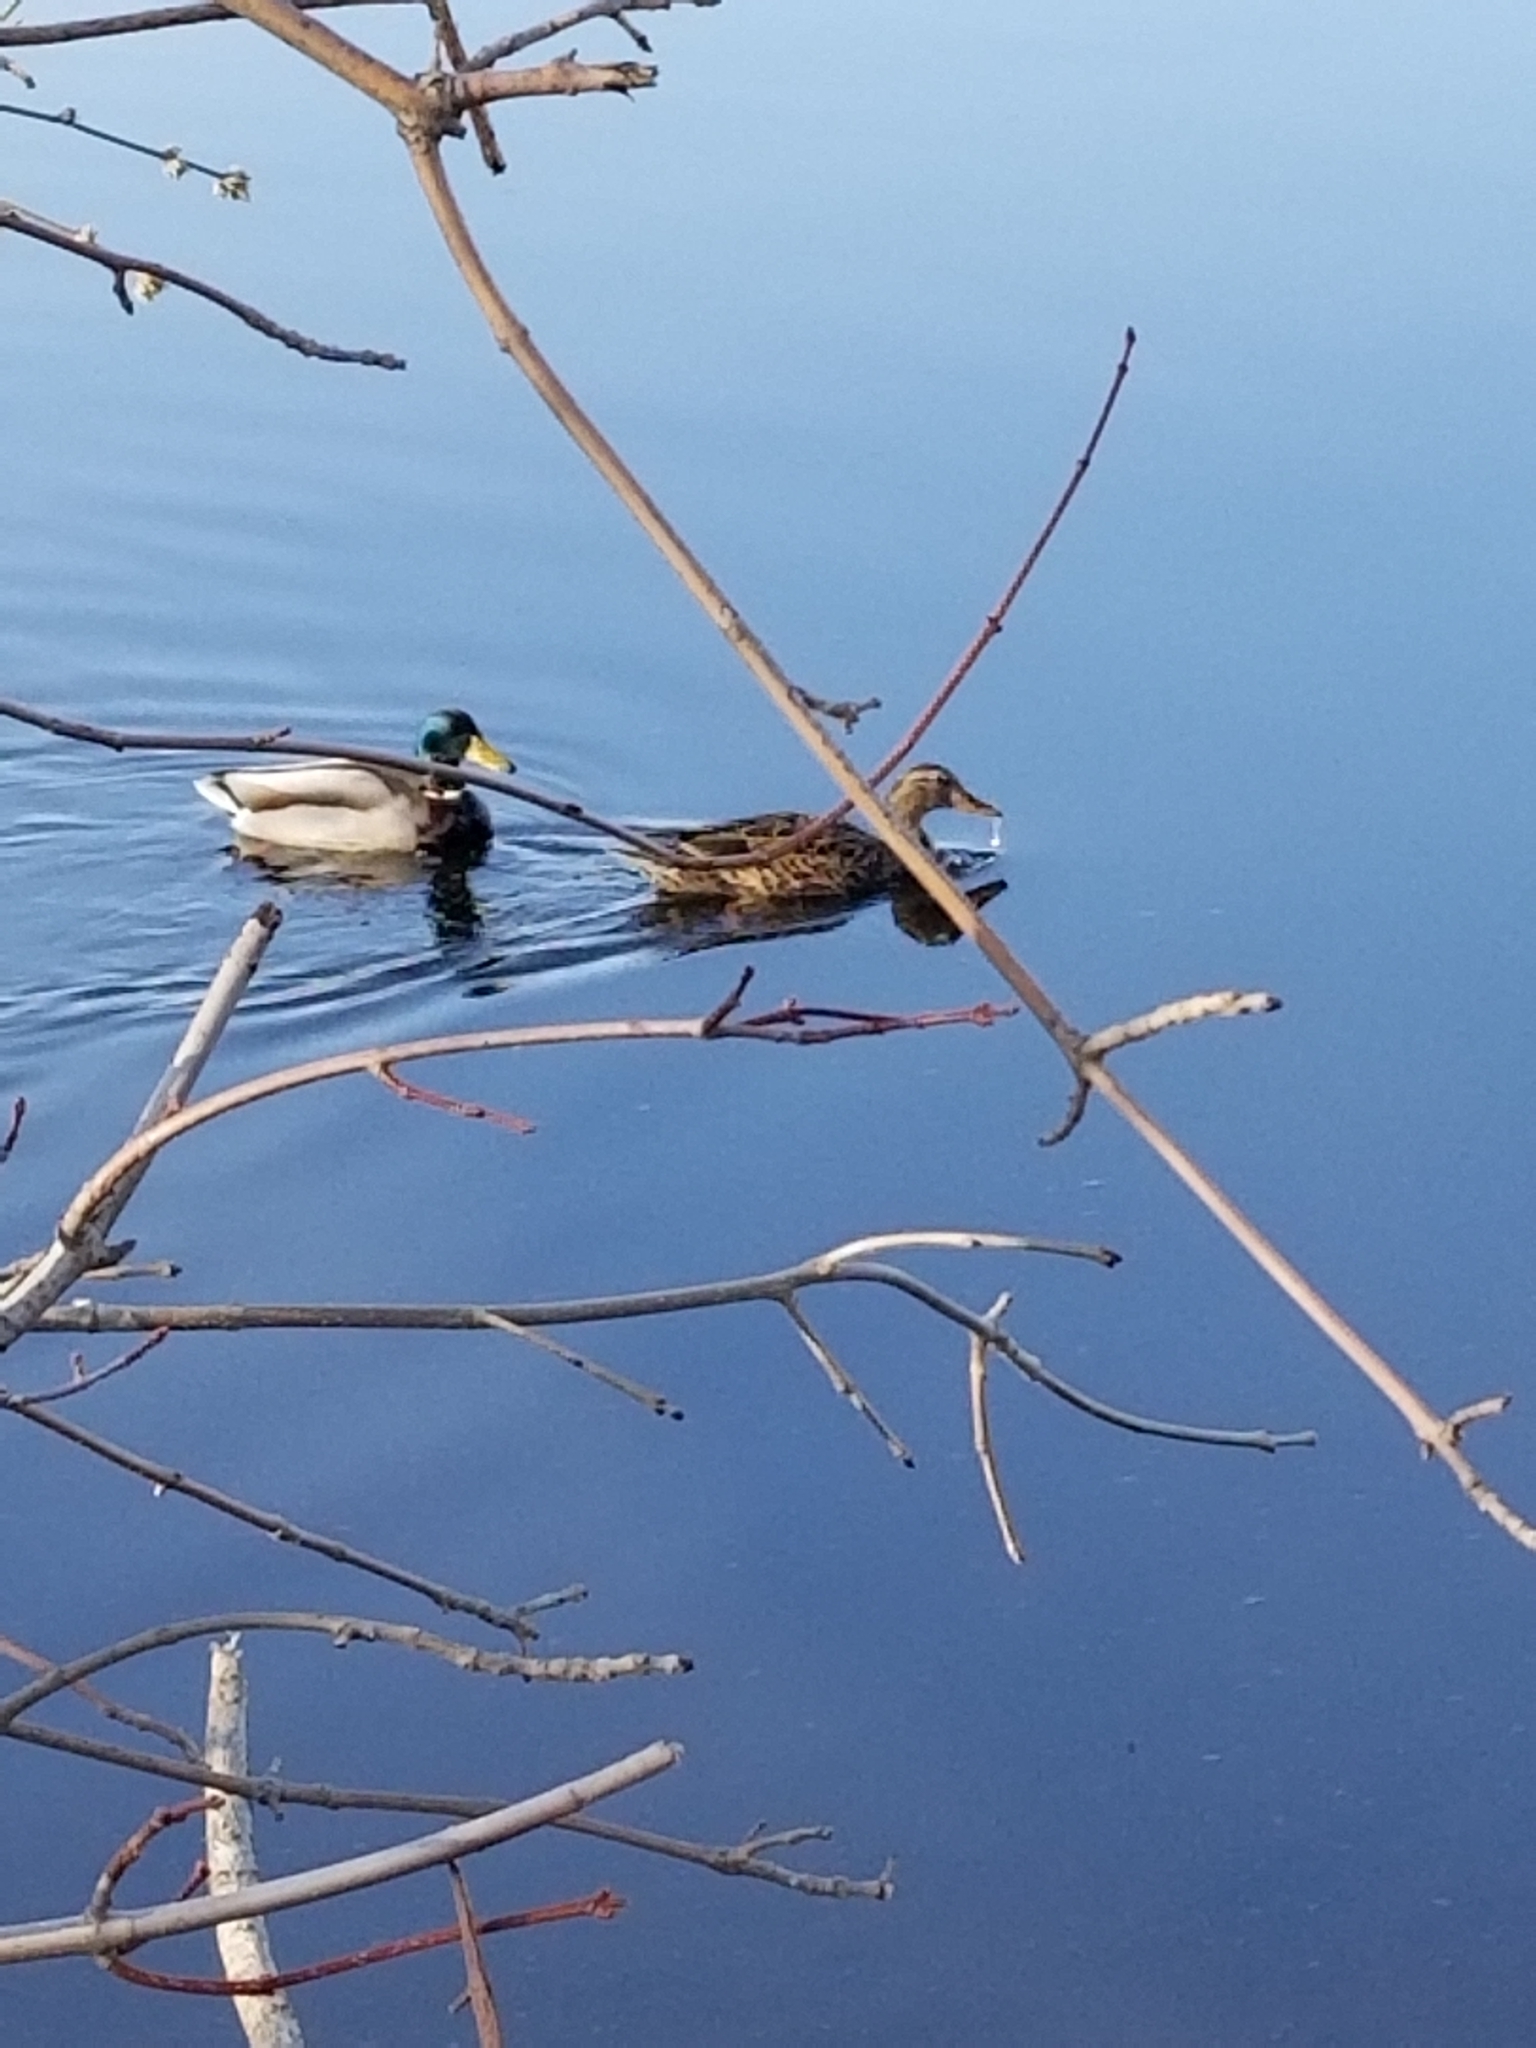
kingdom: Animalia
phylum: Chordata
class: Aves
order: Anseriformes
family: Anatidae
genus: Anas
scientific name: Anas platyrhynchos
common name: Mallard
